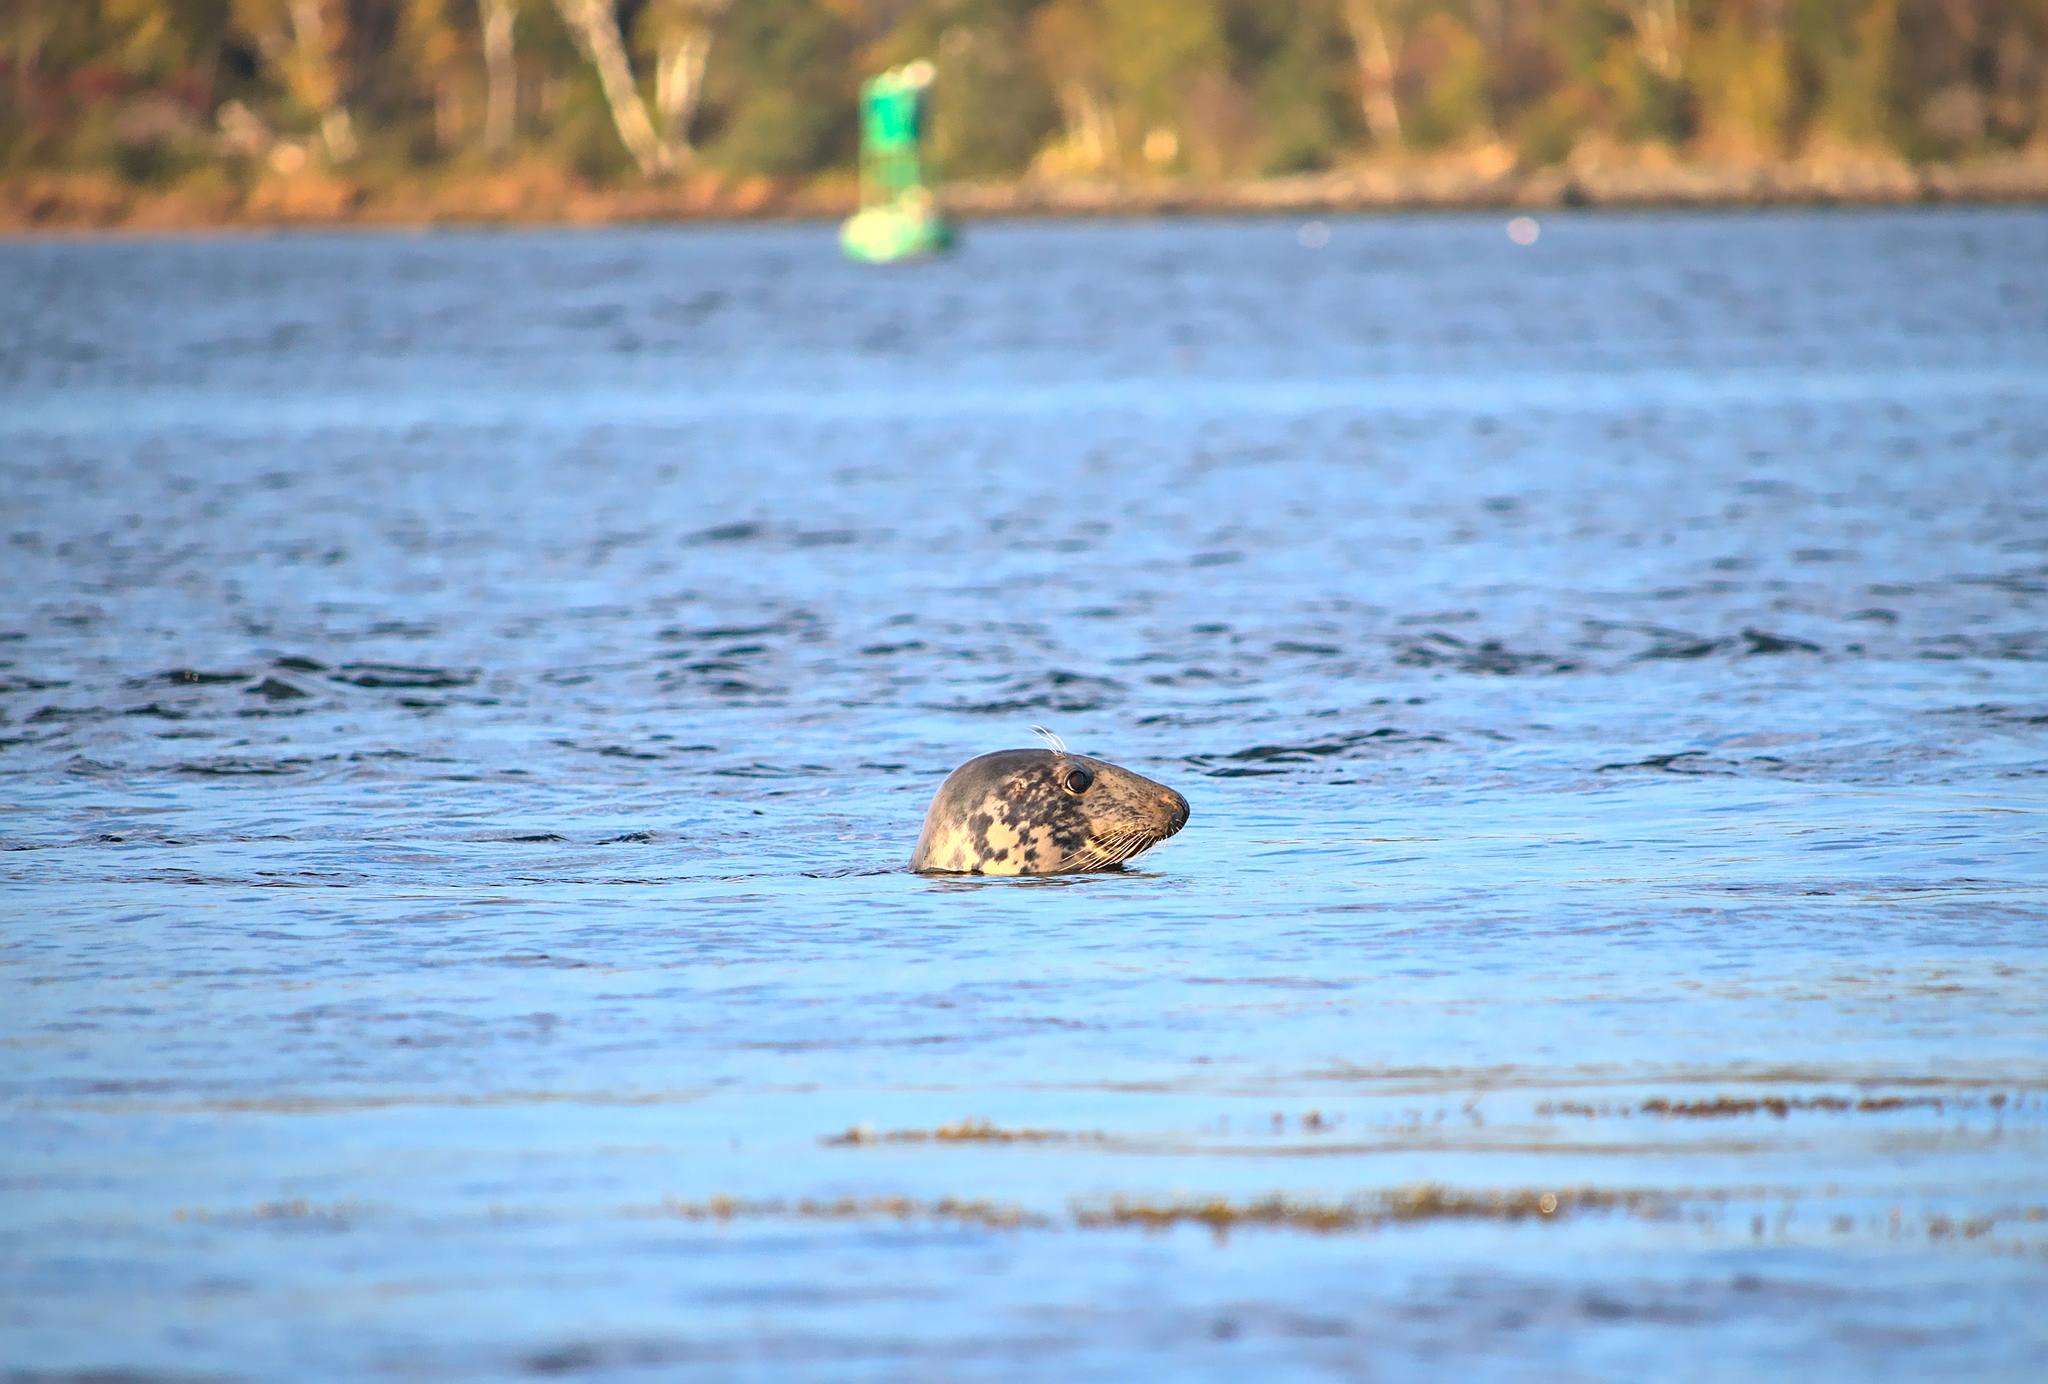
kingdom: Animalia
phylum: Chordata
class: Mammalia
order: Carnivora
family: Phocidae
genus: Halichoerus
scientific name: Halichoerus grypus
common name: Grey seal
